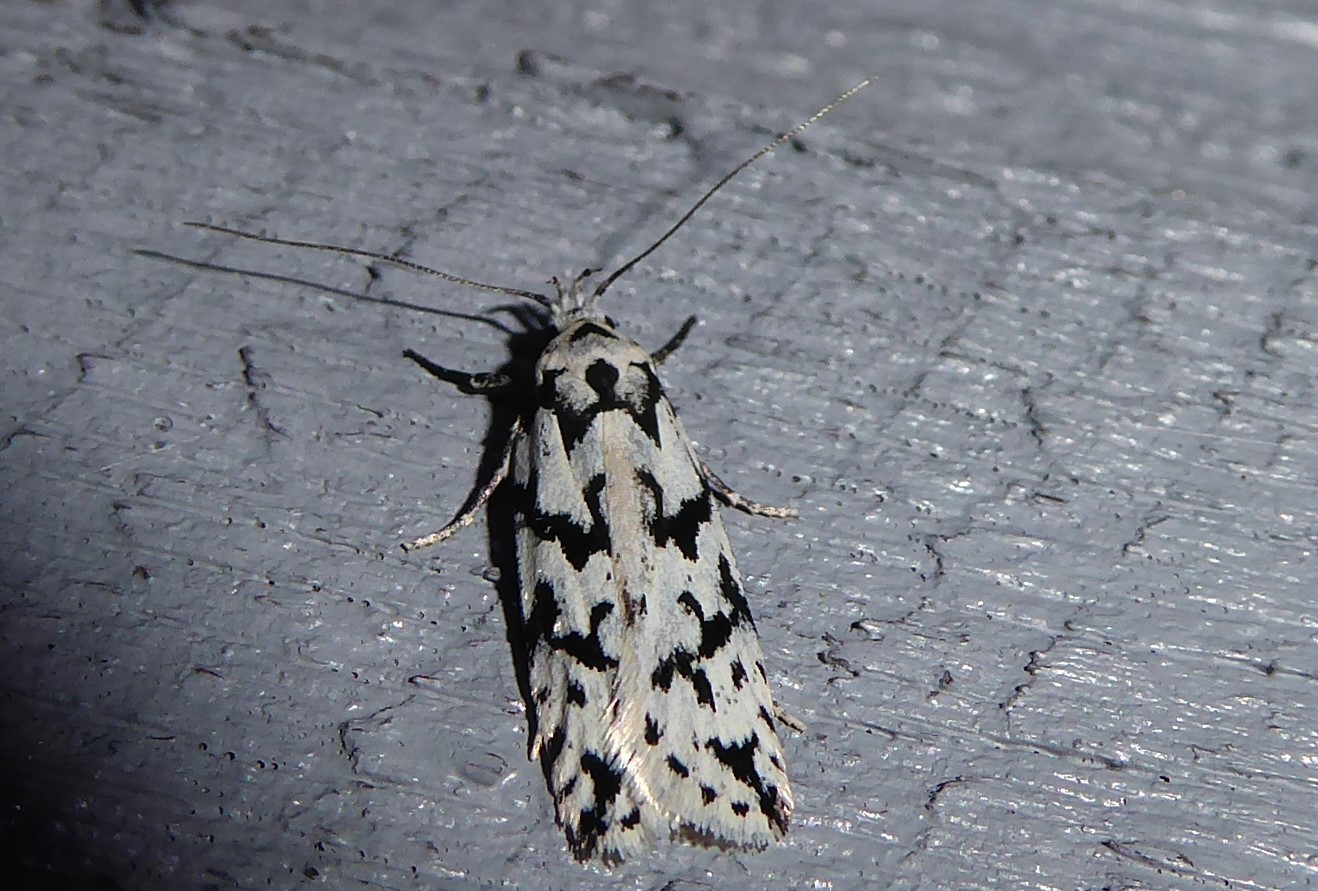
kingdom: Animalia
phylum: Arthropoda
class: Insecta
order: Lepidoptera
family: Oecophoridae
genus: Izatha
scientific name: Izatha katadiktya
